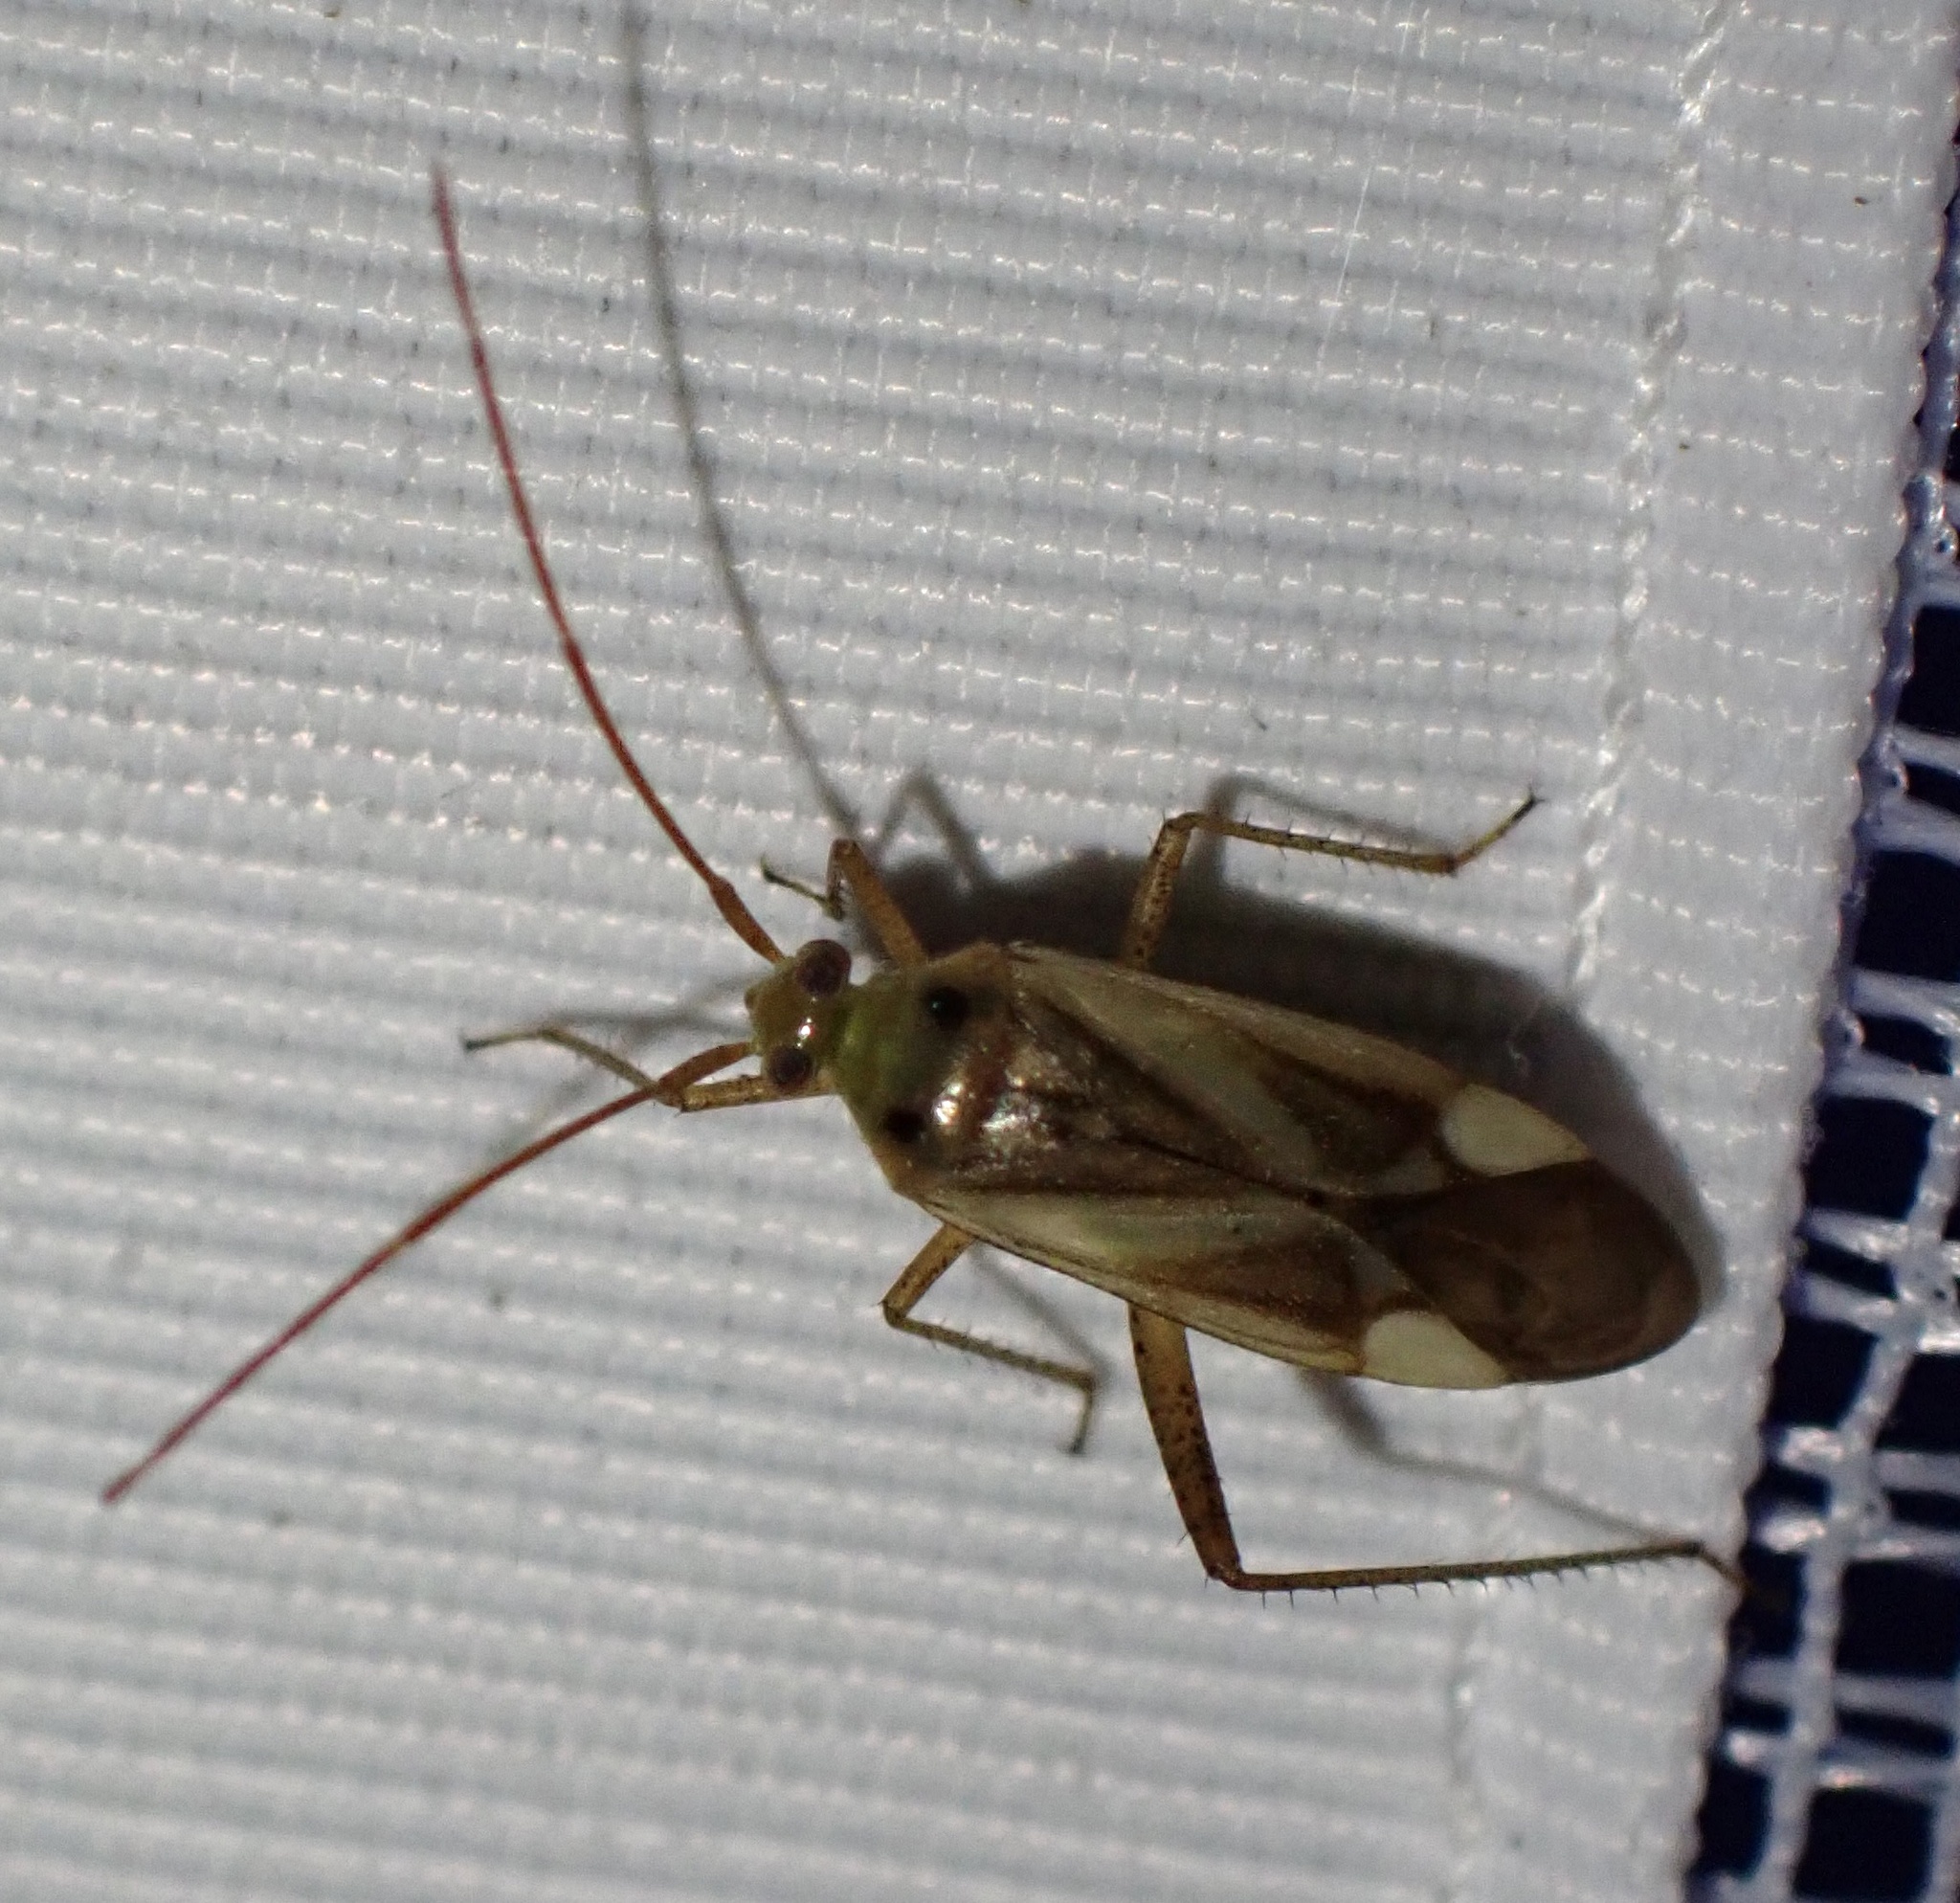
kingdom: Animalia
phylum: Arthropoda
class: Insecta
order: Hemiptera
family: Miridae
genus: Adelphocoris
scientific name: Adelphocoris lineolatus
